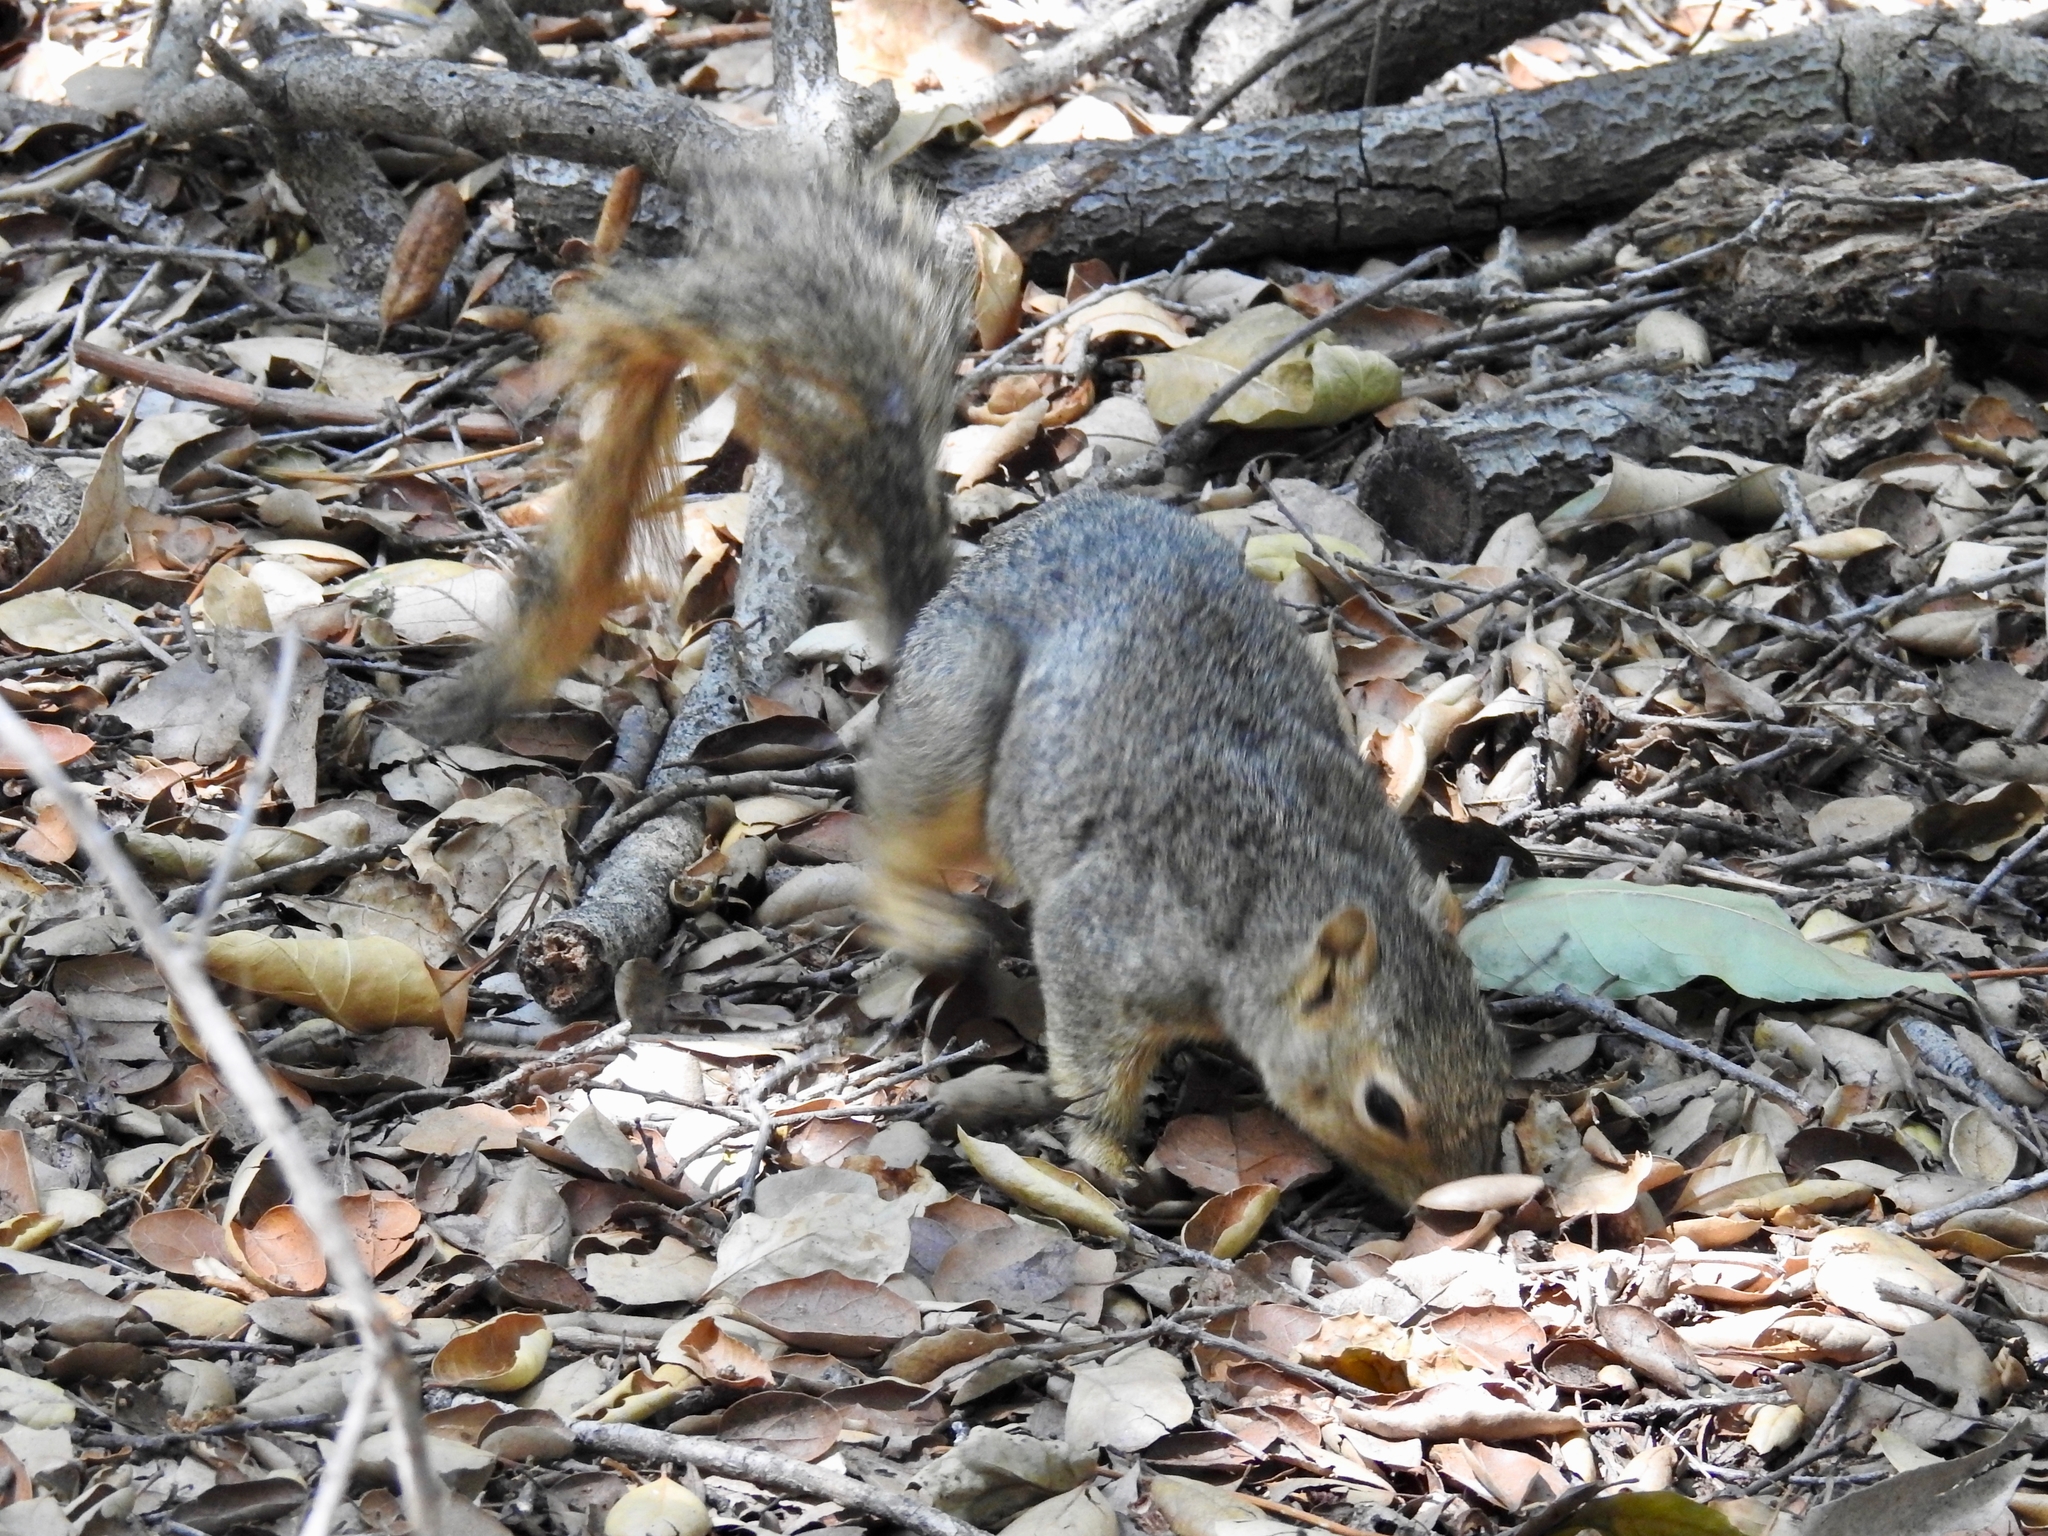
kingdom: Animalia
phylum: Chordata
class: Mammalia
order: Rodentia
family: Sciuridae
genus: Sciurus
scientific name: Sciurus niger
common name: Fox squirrel
